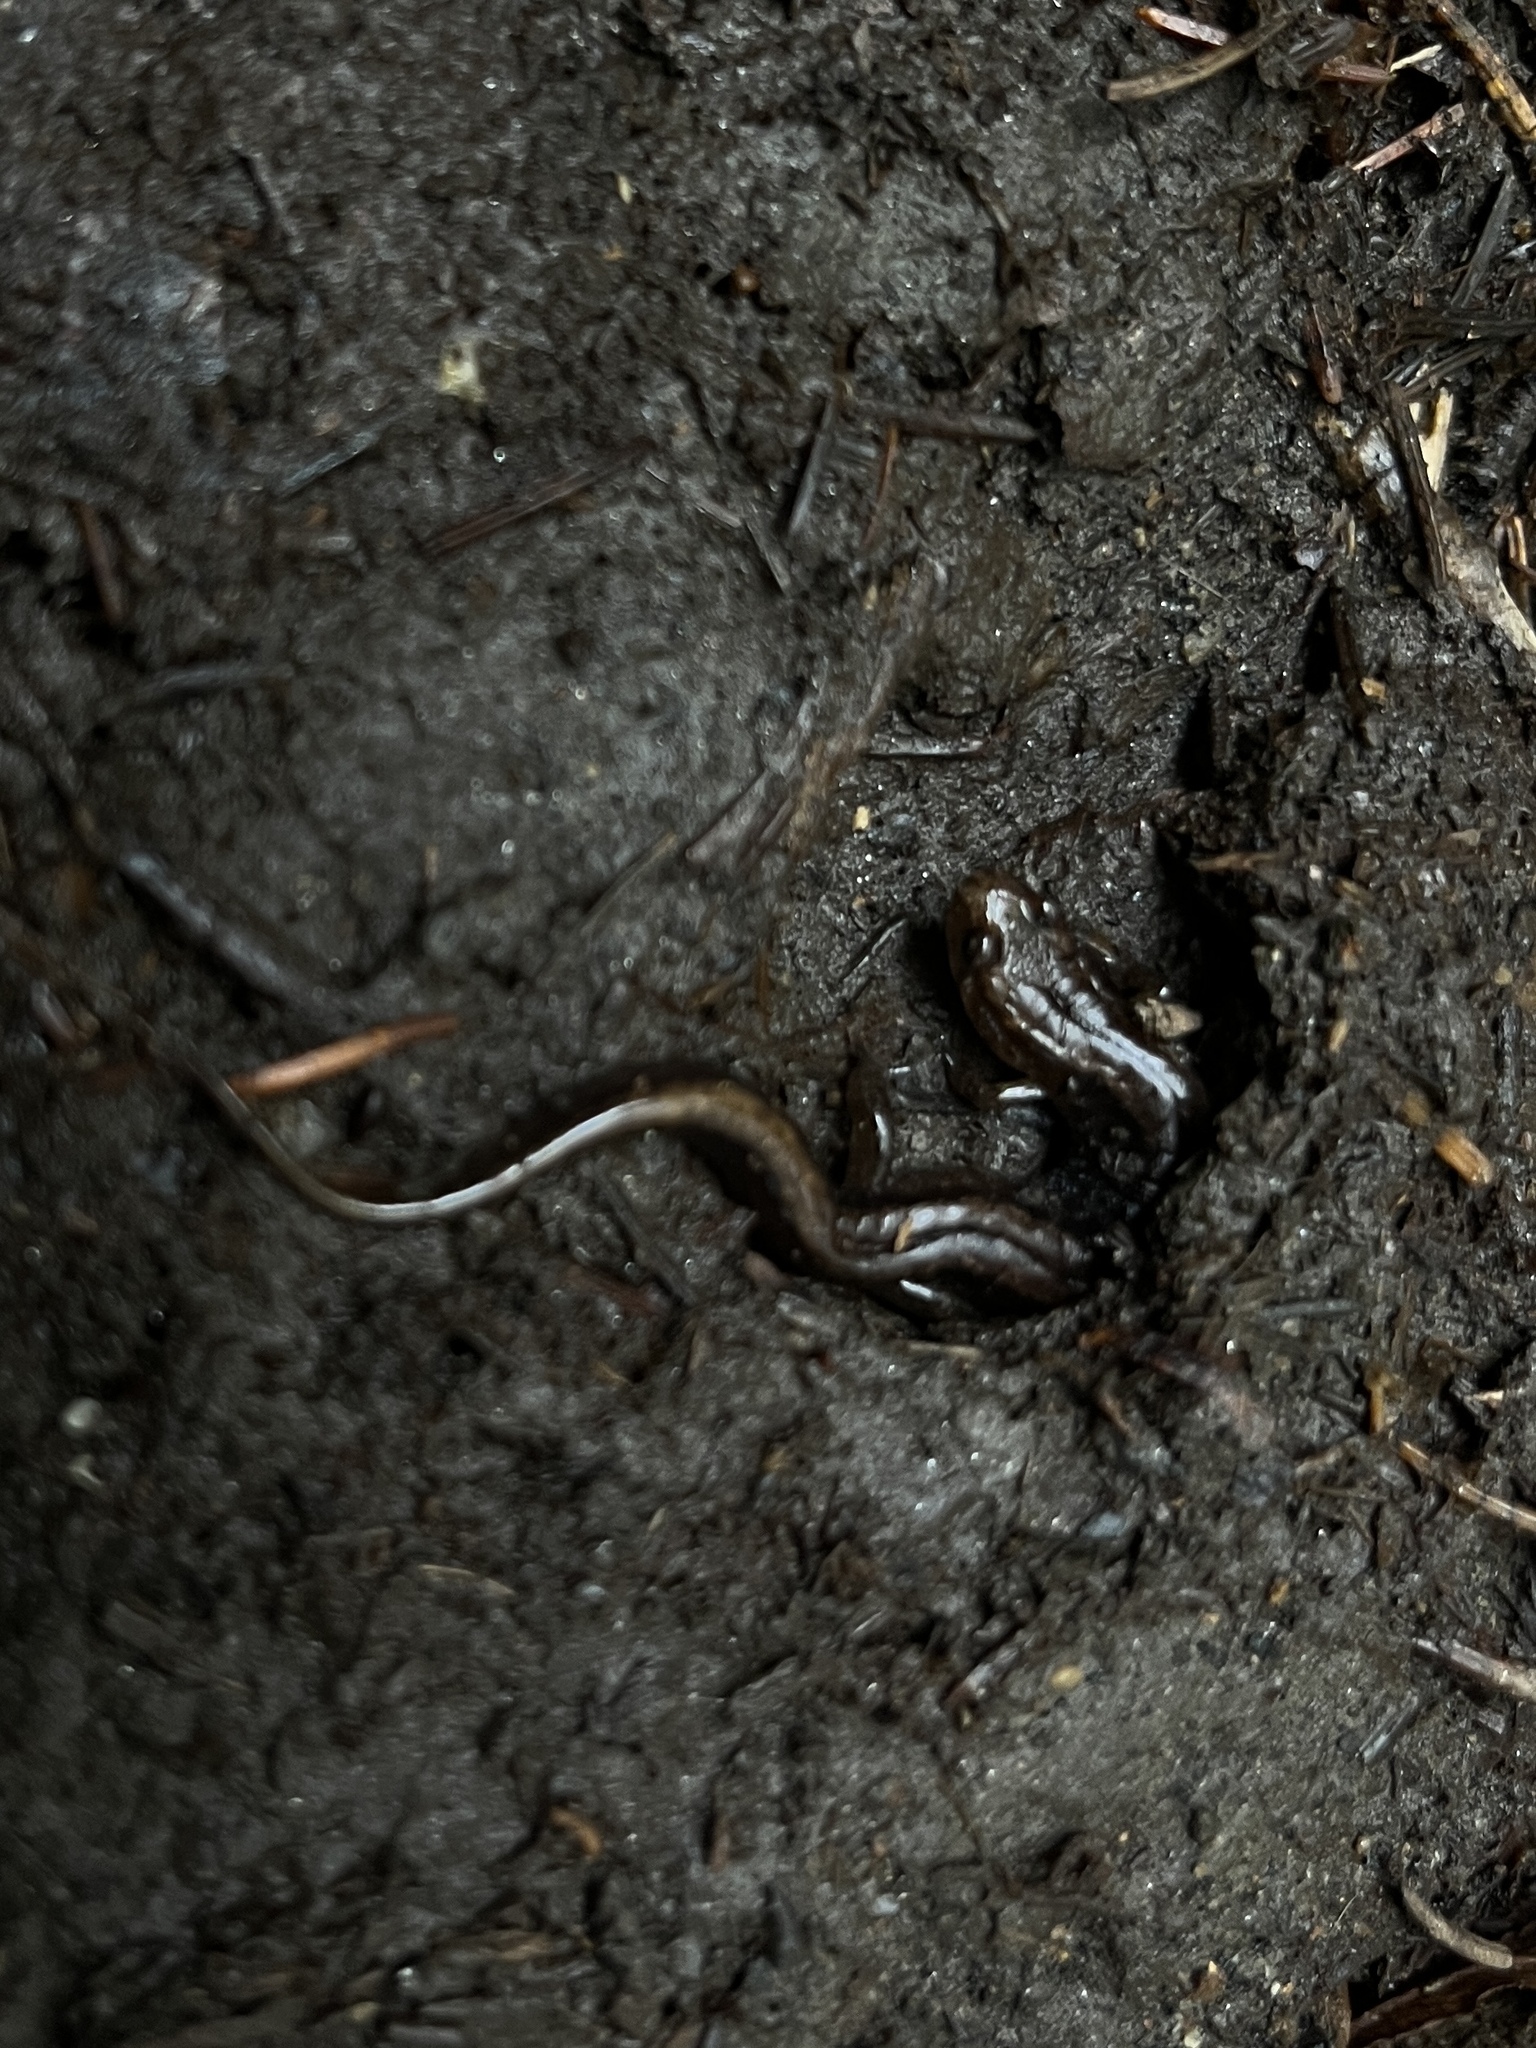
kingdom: Animalia
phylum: Chordata
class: Amphibia
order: Caudata
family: Plethodontidae
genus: Desmognathus
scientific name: Desmognathus orestes
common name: Blue ridge dusky salamander
